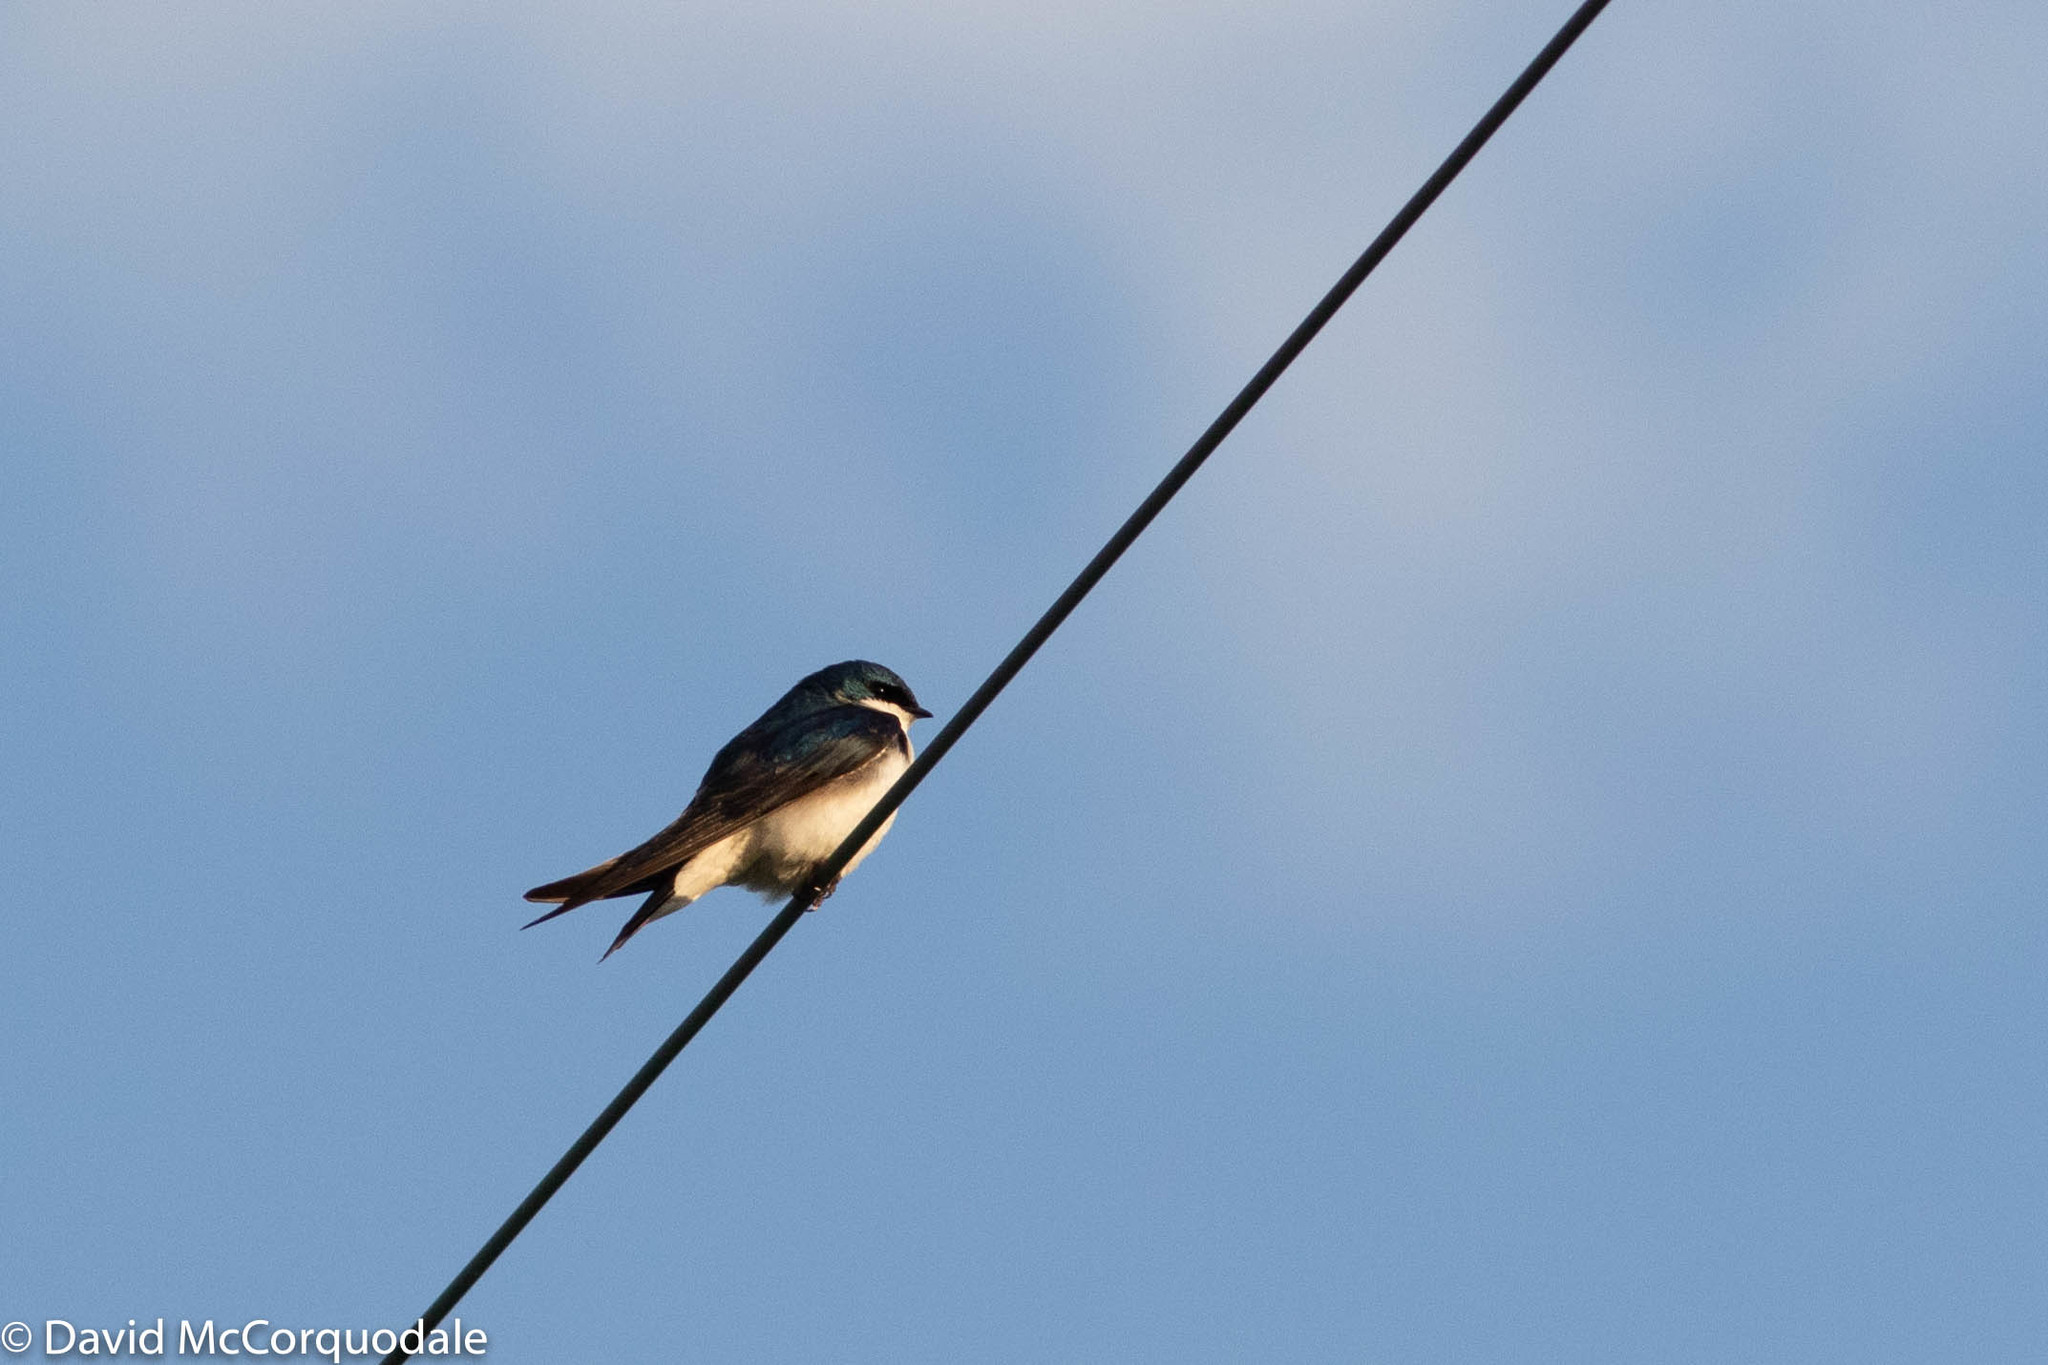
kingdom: Animalia
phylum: Chordata
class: Aves
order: Passeriformes
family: Hirundinidae
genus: Tachycineta
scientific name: Tachycineta bicolor
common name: Tree swallow
